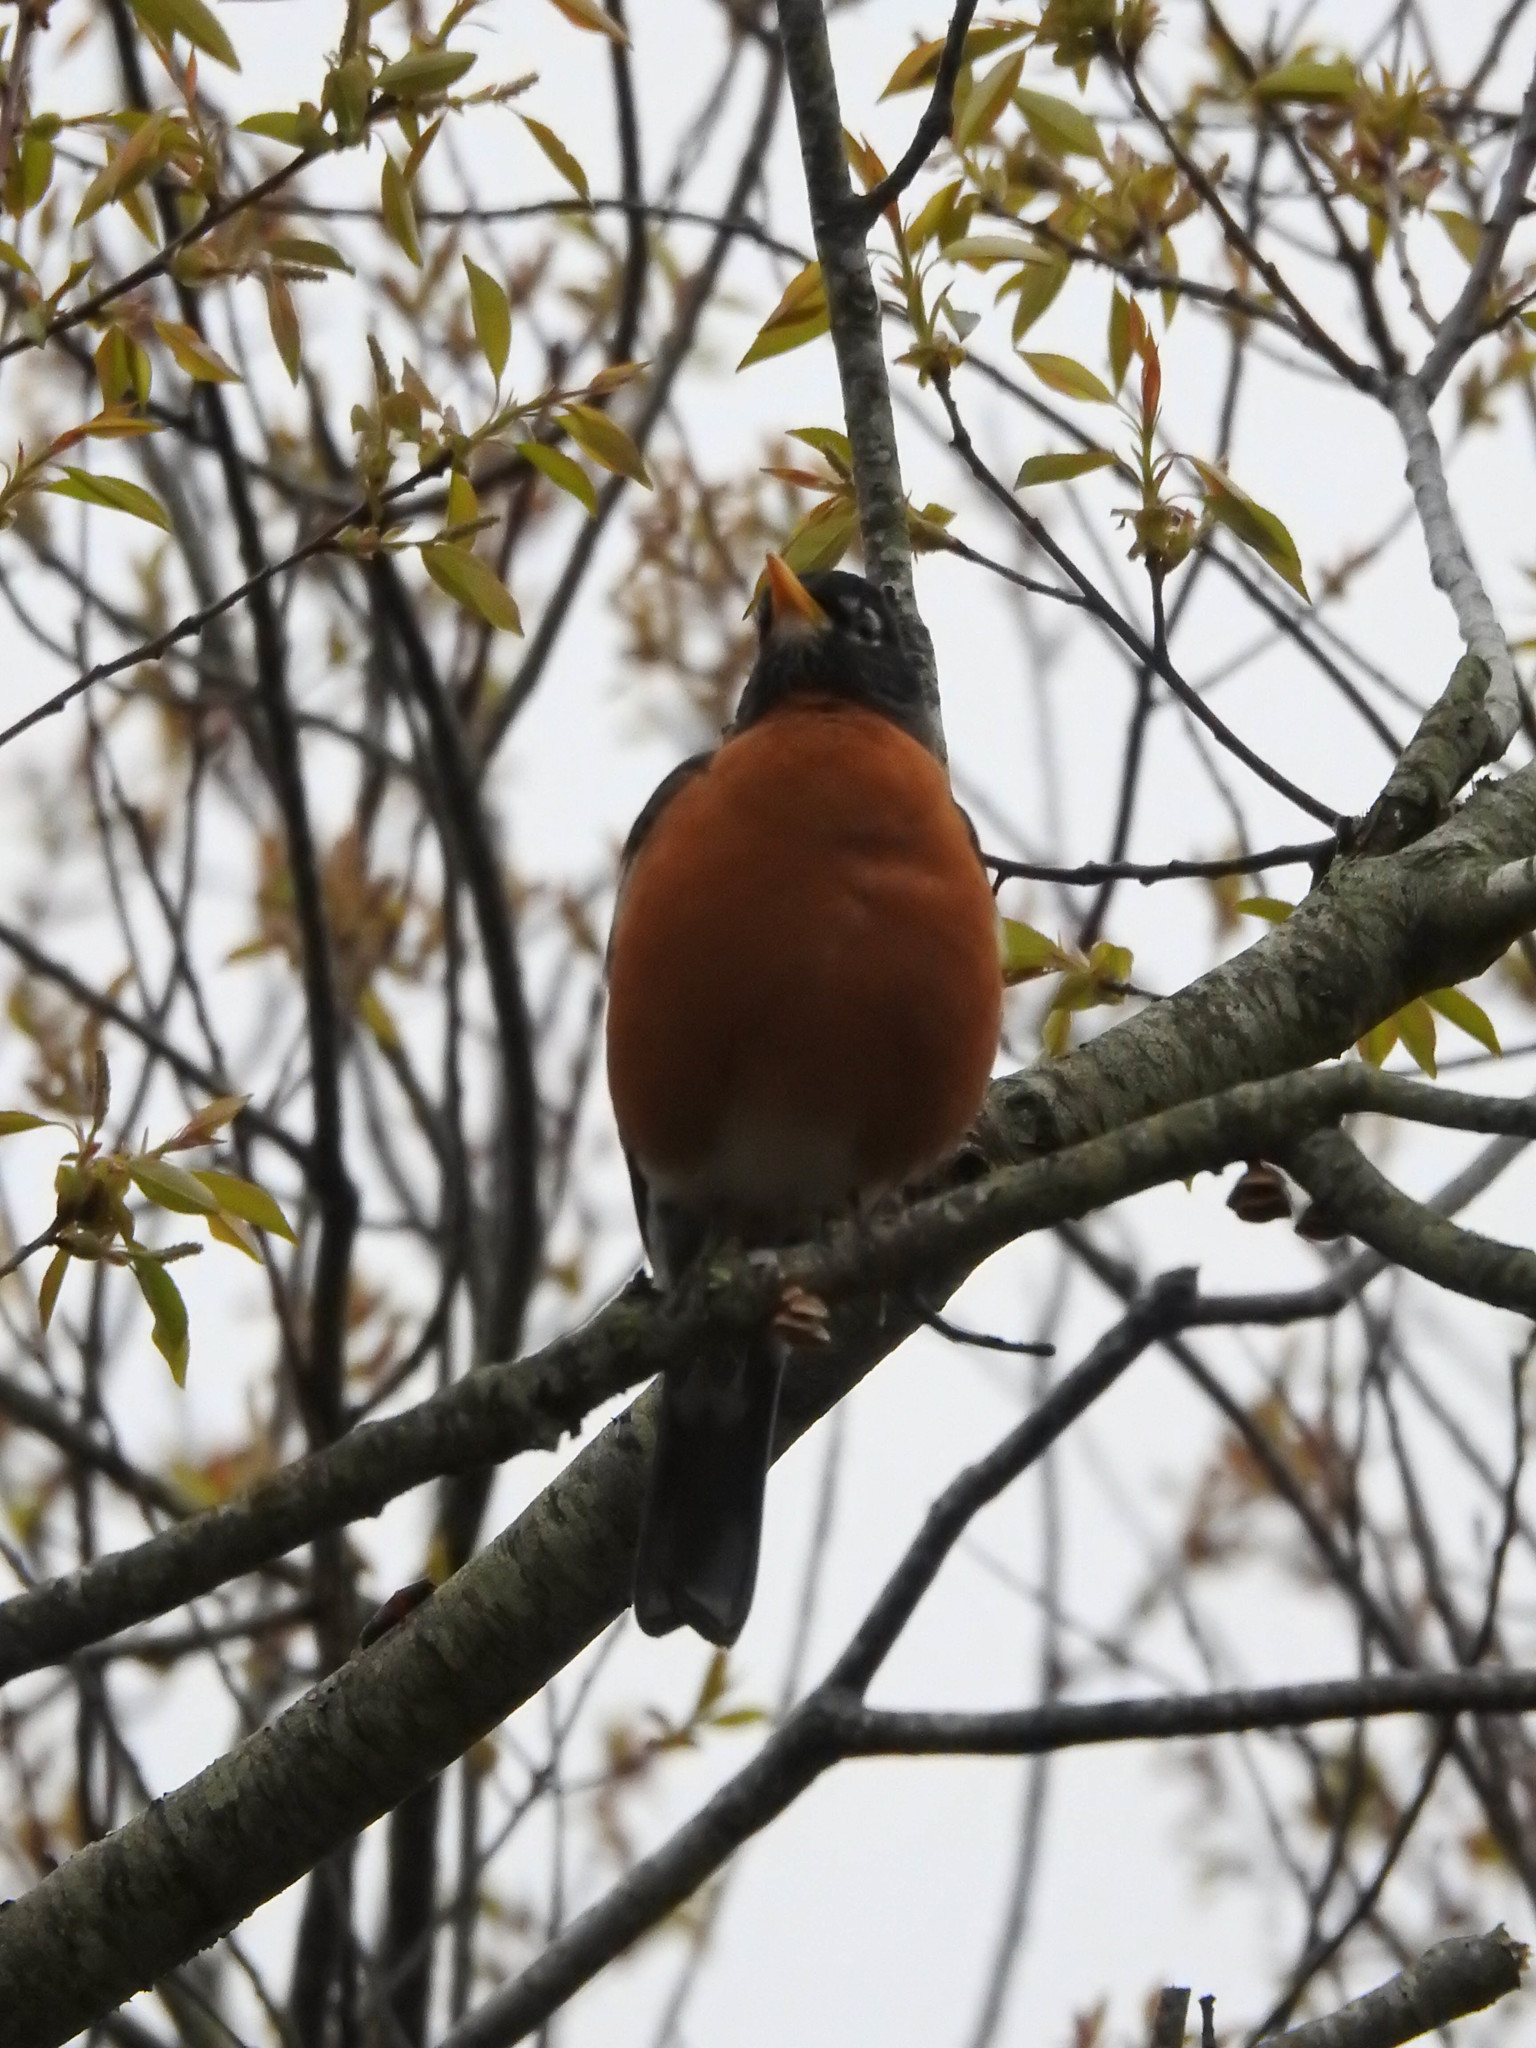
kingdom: Animalia
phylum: Chordata
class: Aves
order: Passeriformes
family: Turdidae
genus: Turdus
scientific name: Turdus migratorius
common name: American robin
